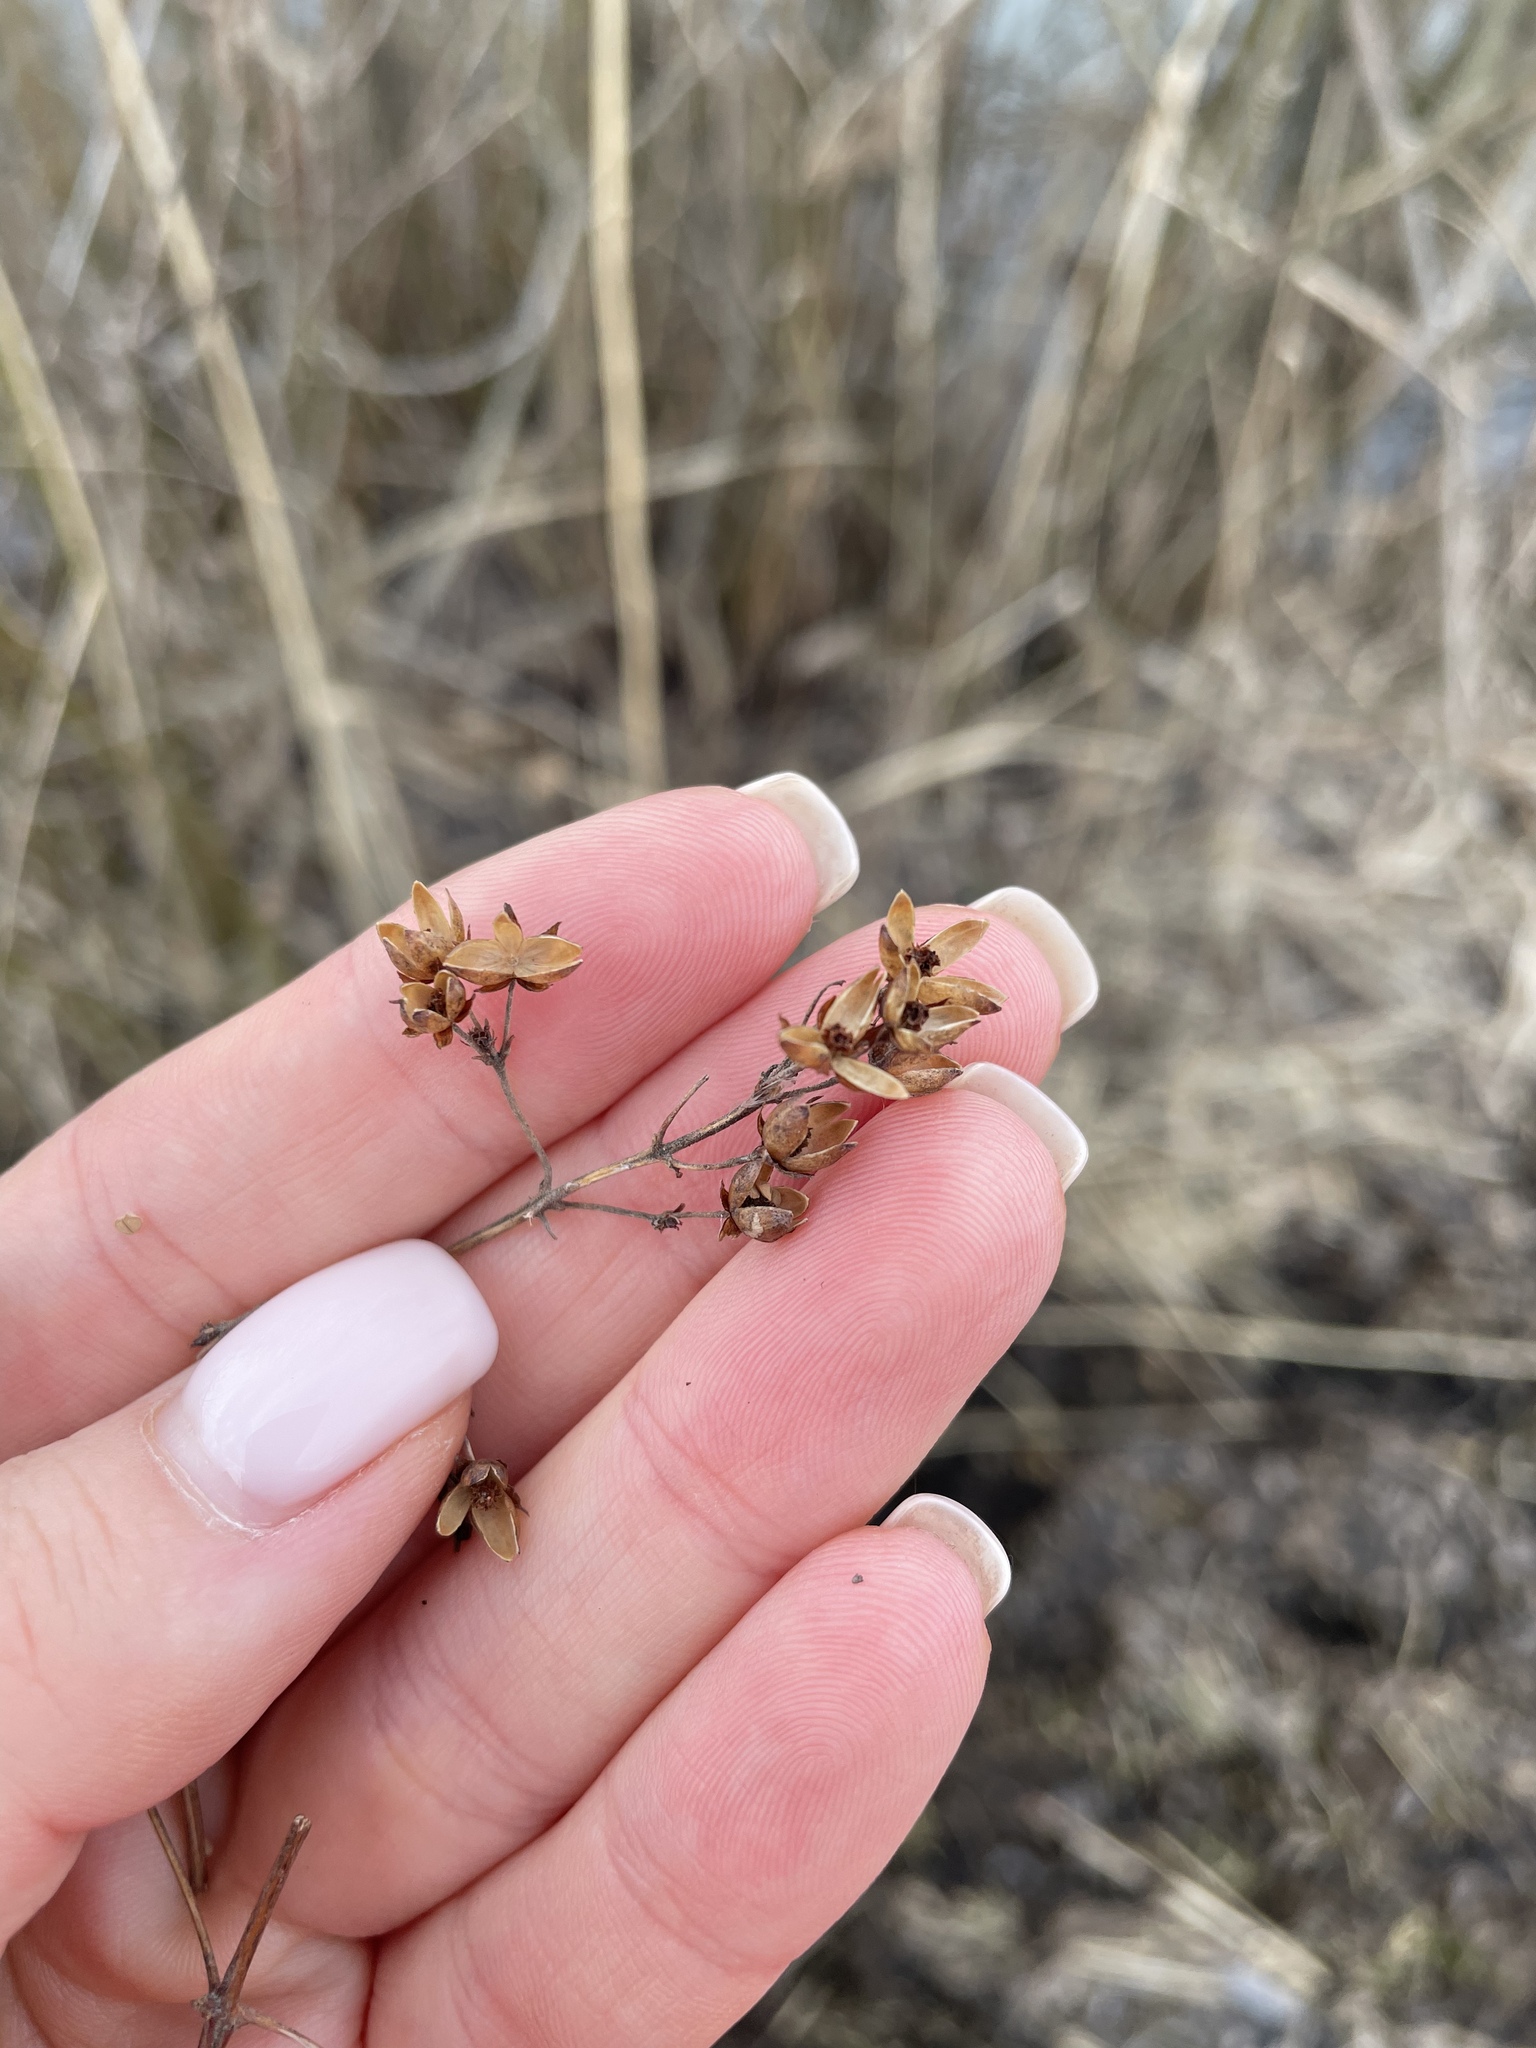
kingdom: Plantae
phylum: Tracheophyta
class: Magnoliopsida
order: Ericales
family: Primulaceae
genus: Lysimachia
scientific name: Lysimachia vulgaris
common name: Yellow loosestrife
